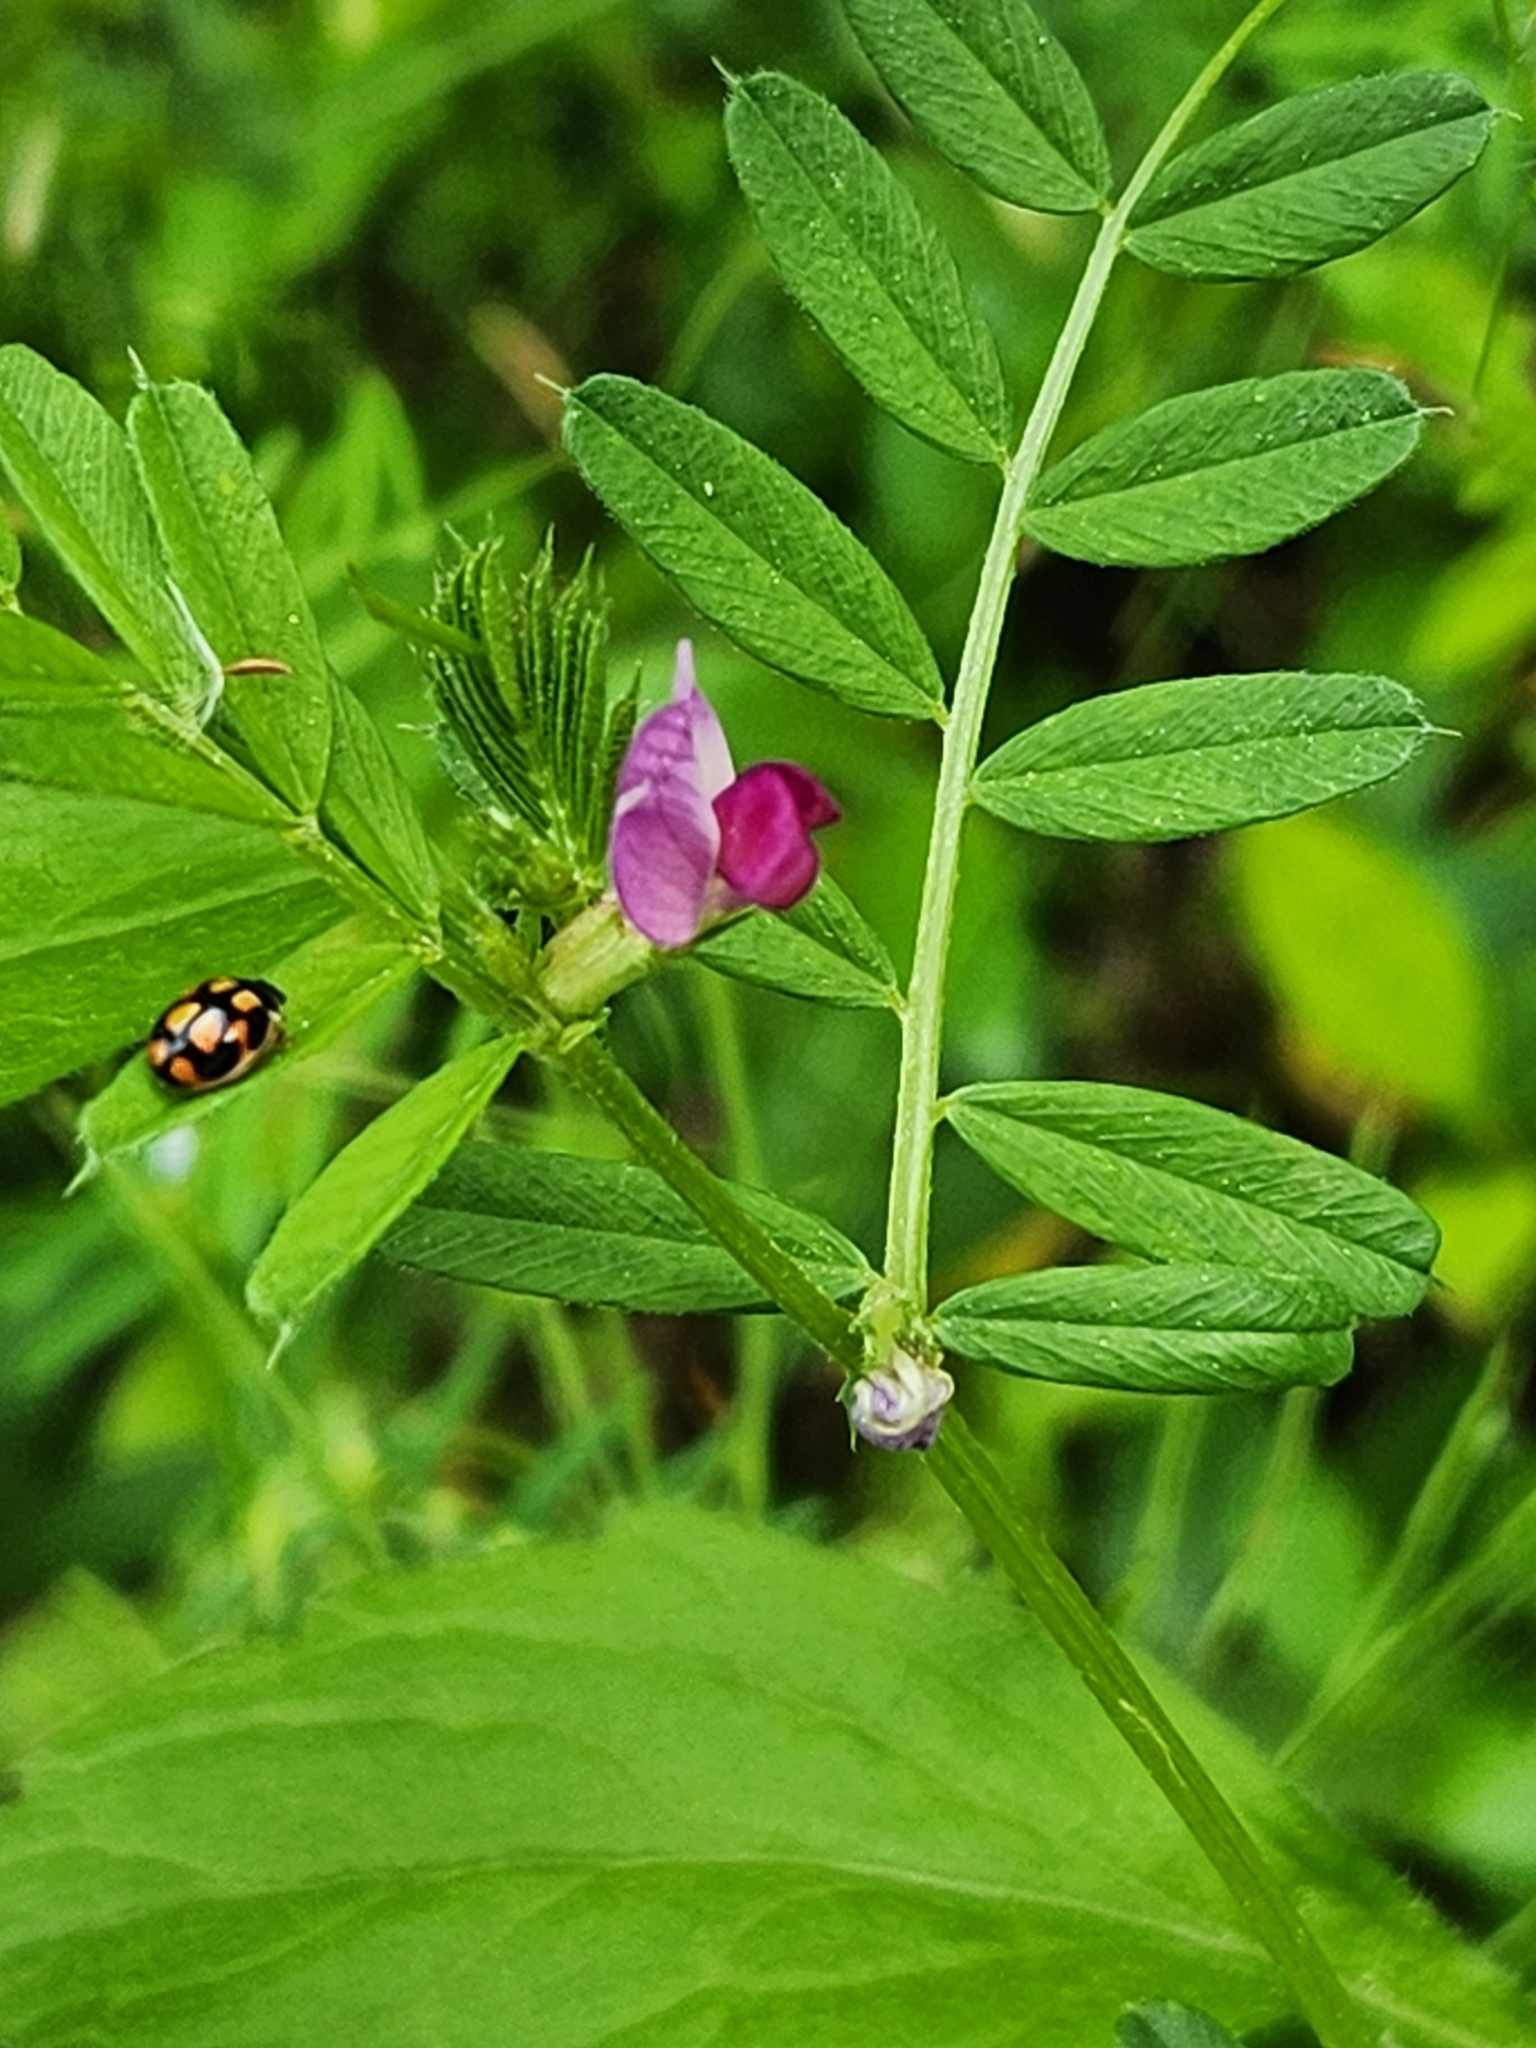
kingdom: Plantae
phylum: Tracheophyta
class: Magnoliopsida
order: Fabales
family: Fabaceae
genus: Vicia
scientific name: Vicia sativa
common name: Garden vetch
